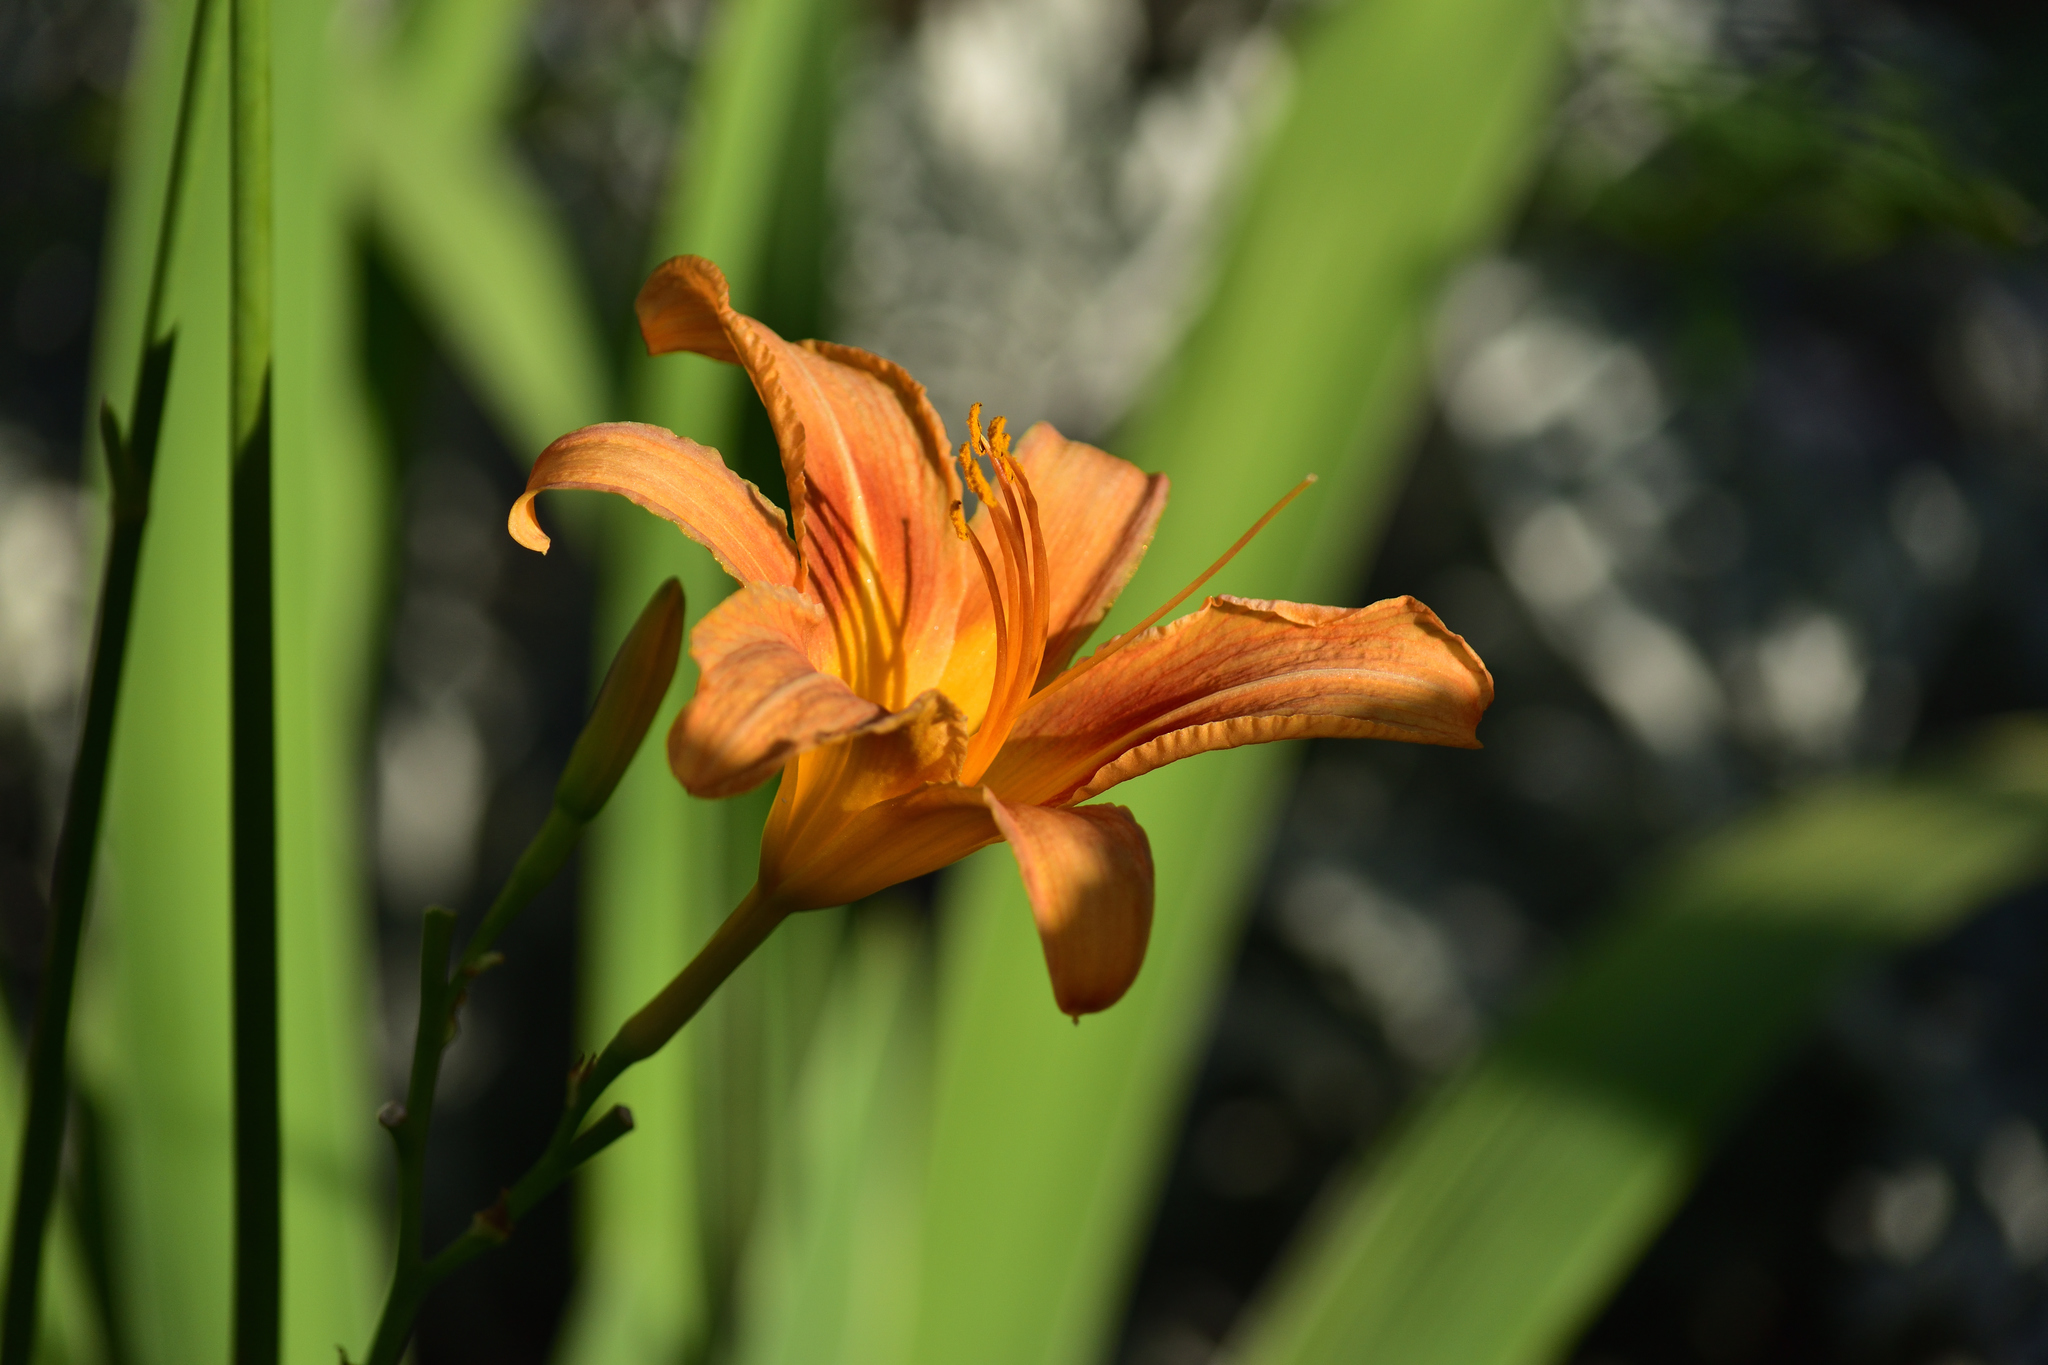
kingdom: Plantae
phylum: Tracheophyta
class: Liliopsida
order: Asparagales
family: Asphodelaceae
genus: Hemerocallis
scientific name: Hemerocallis fulva
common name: Orange day-lily
